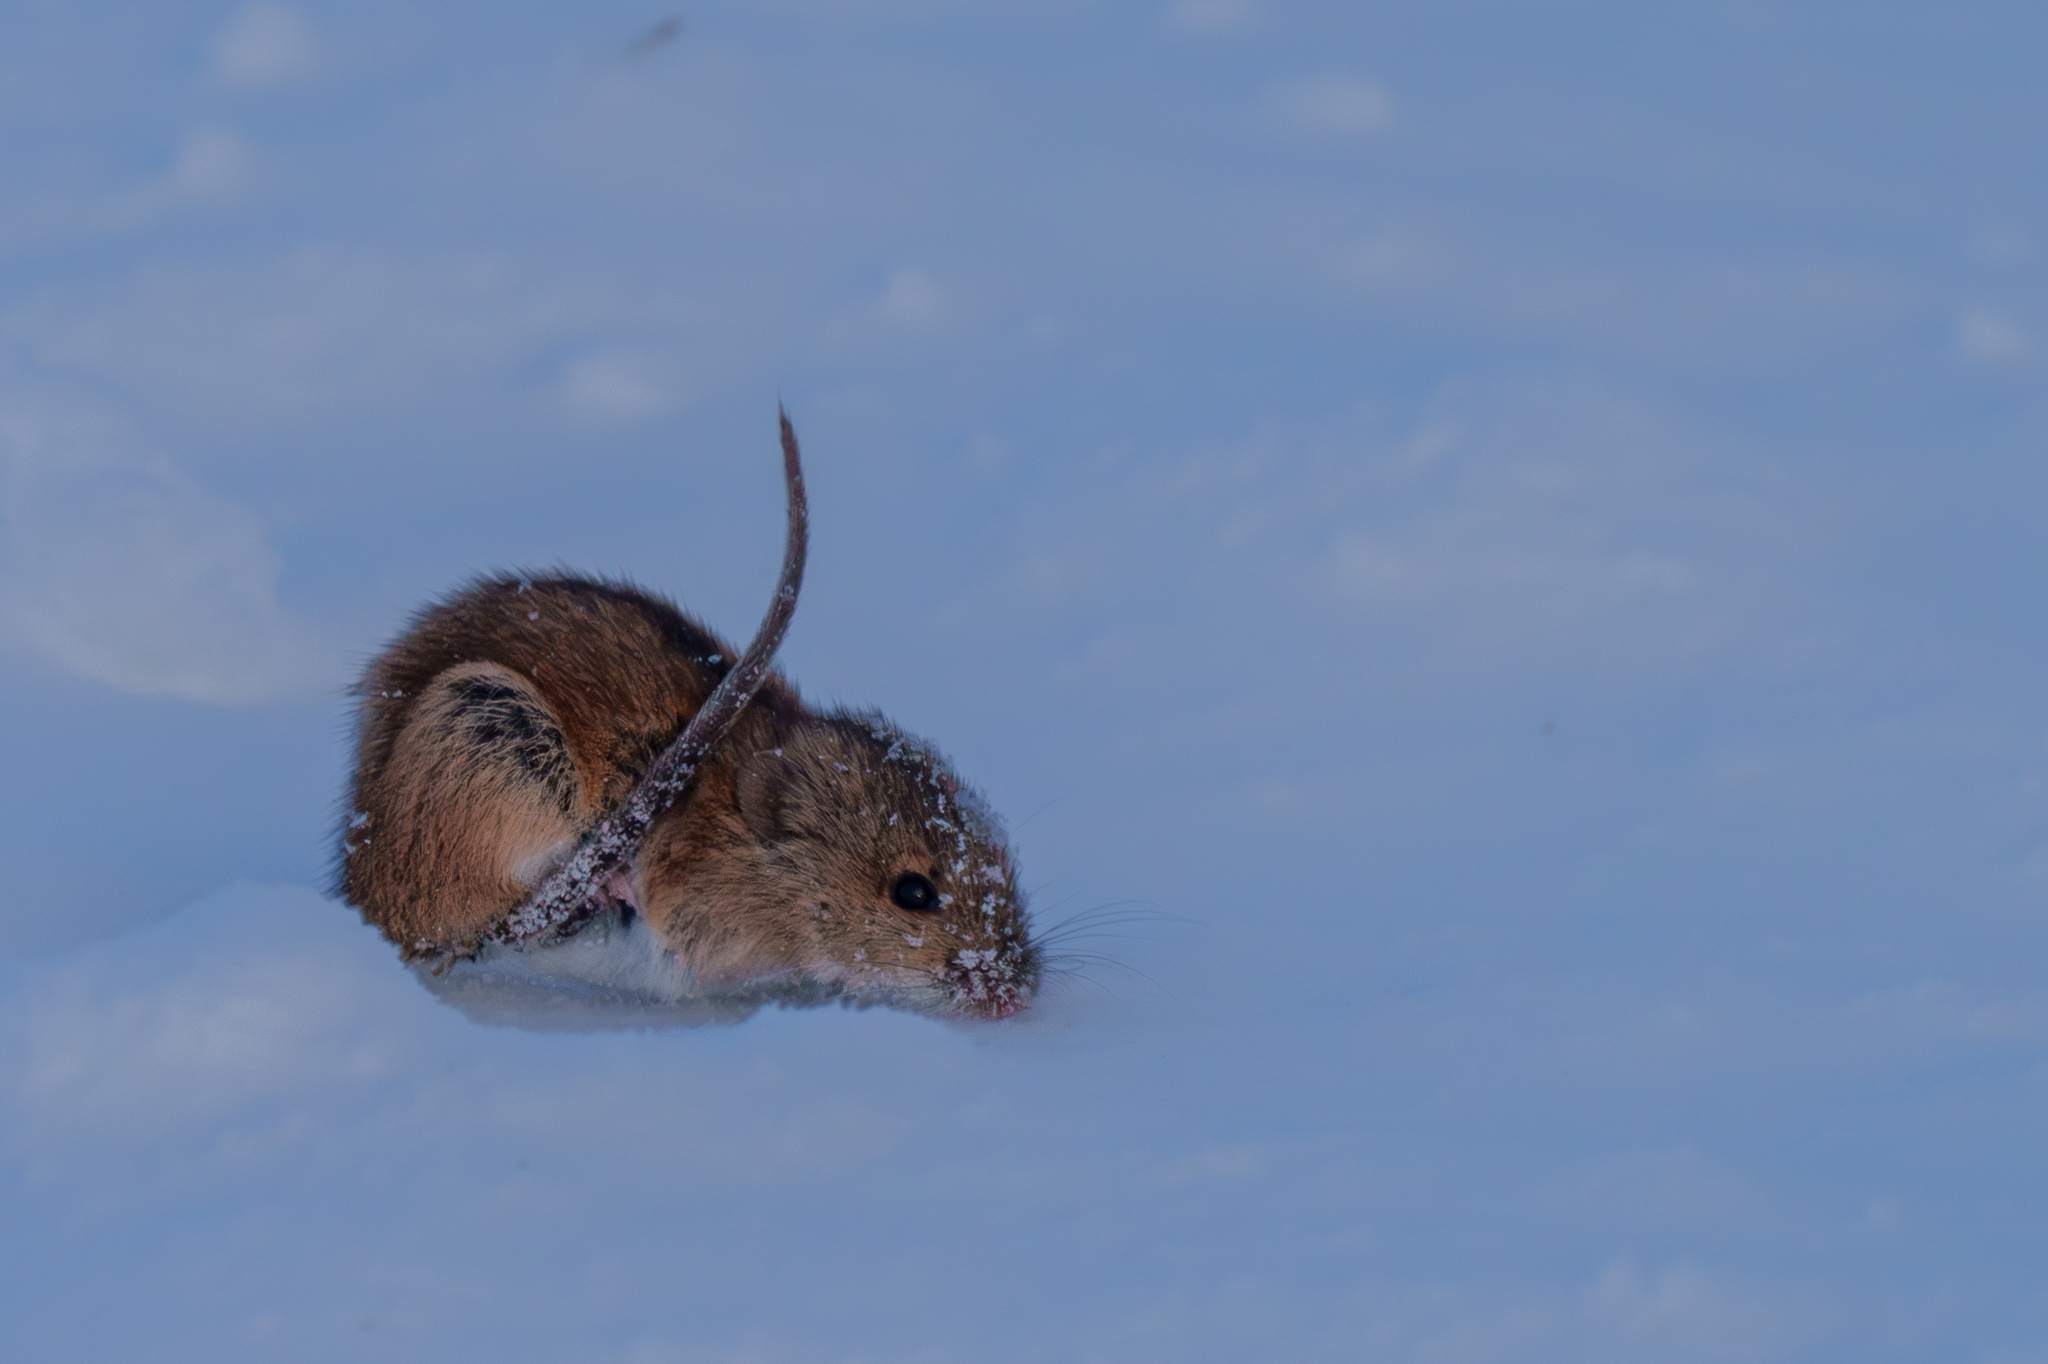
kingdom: Animalia
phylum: Chordata
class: Mammalia
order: Rodentia
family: Muridae
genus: Apodemus
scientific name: Apodemus agrarius
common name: Striped field mouse
